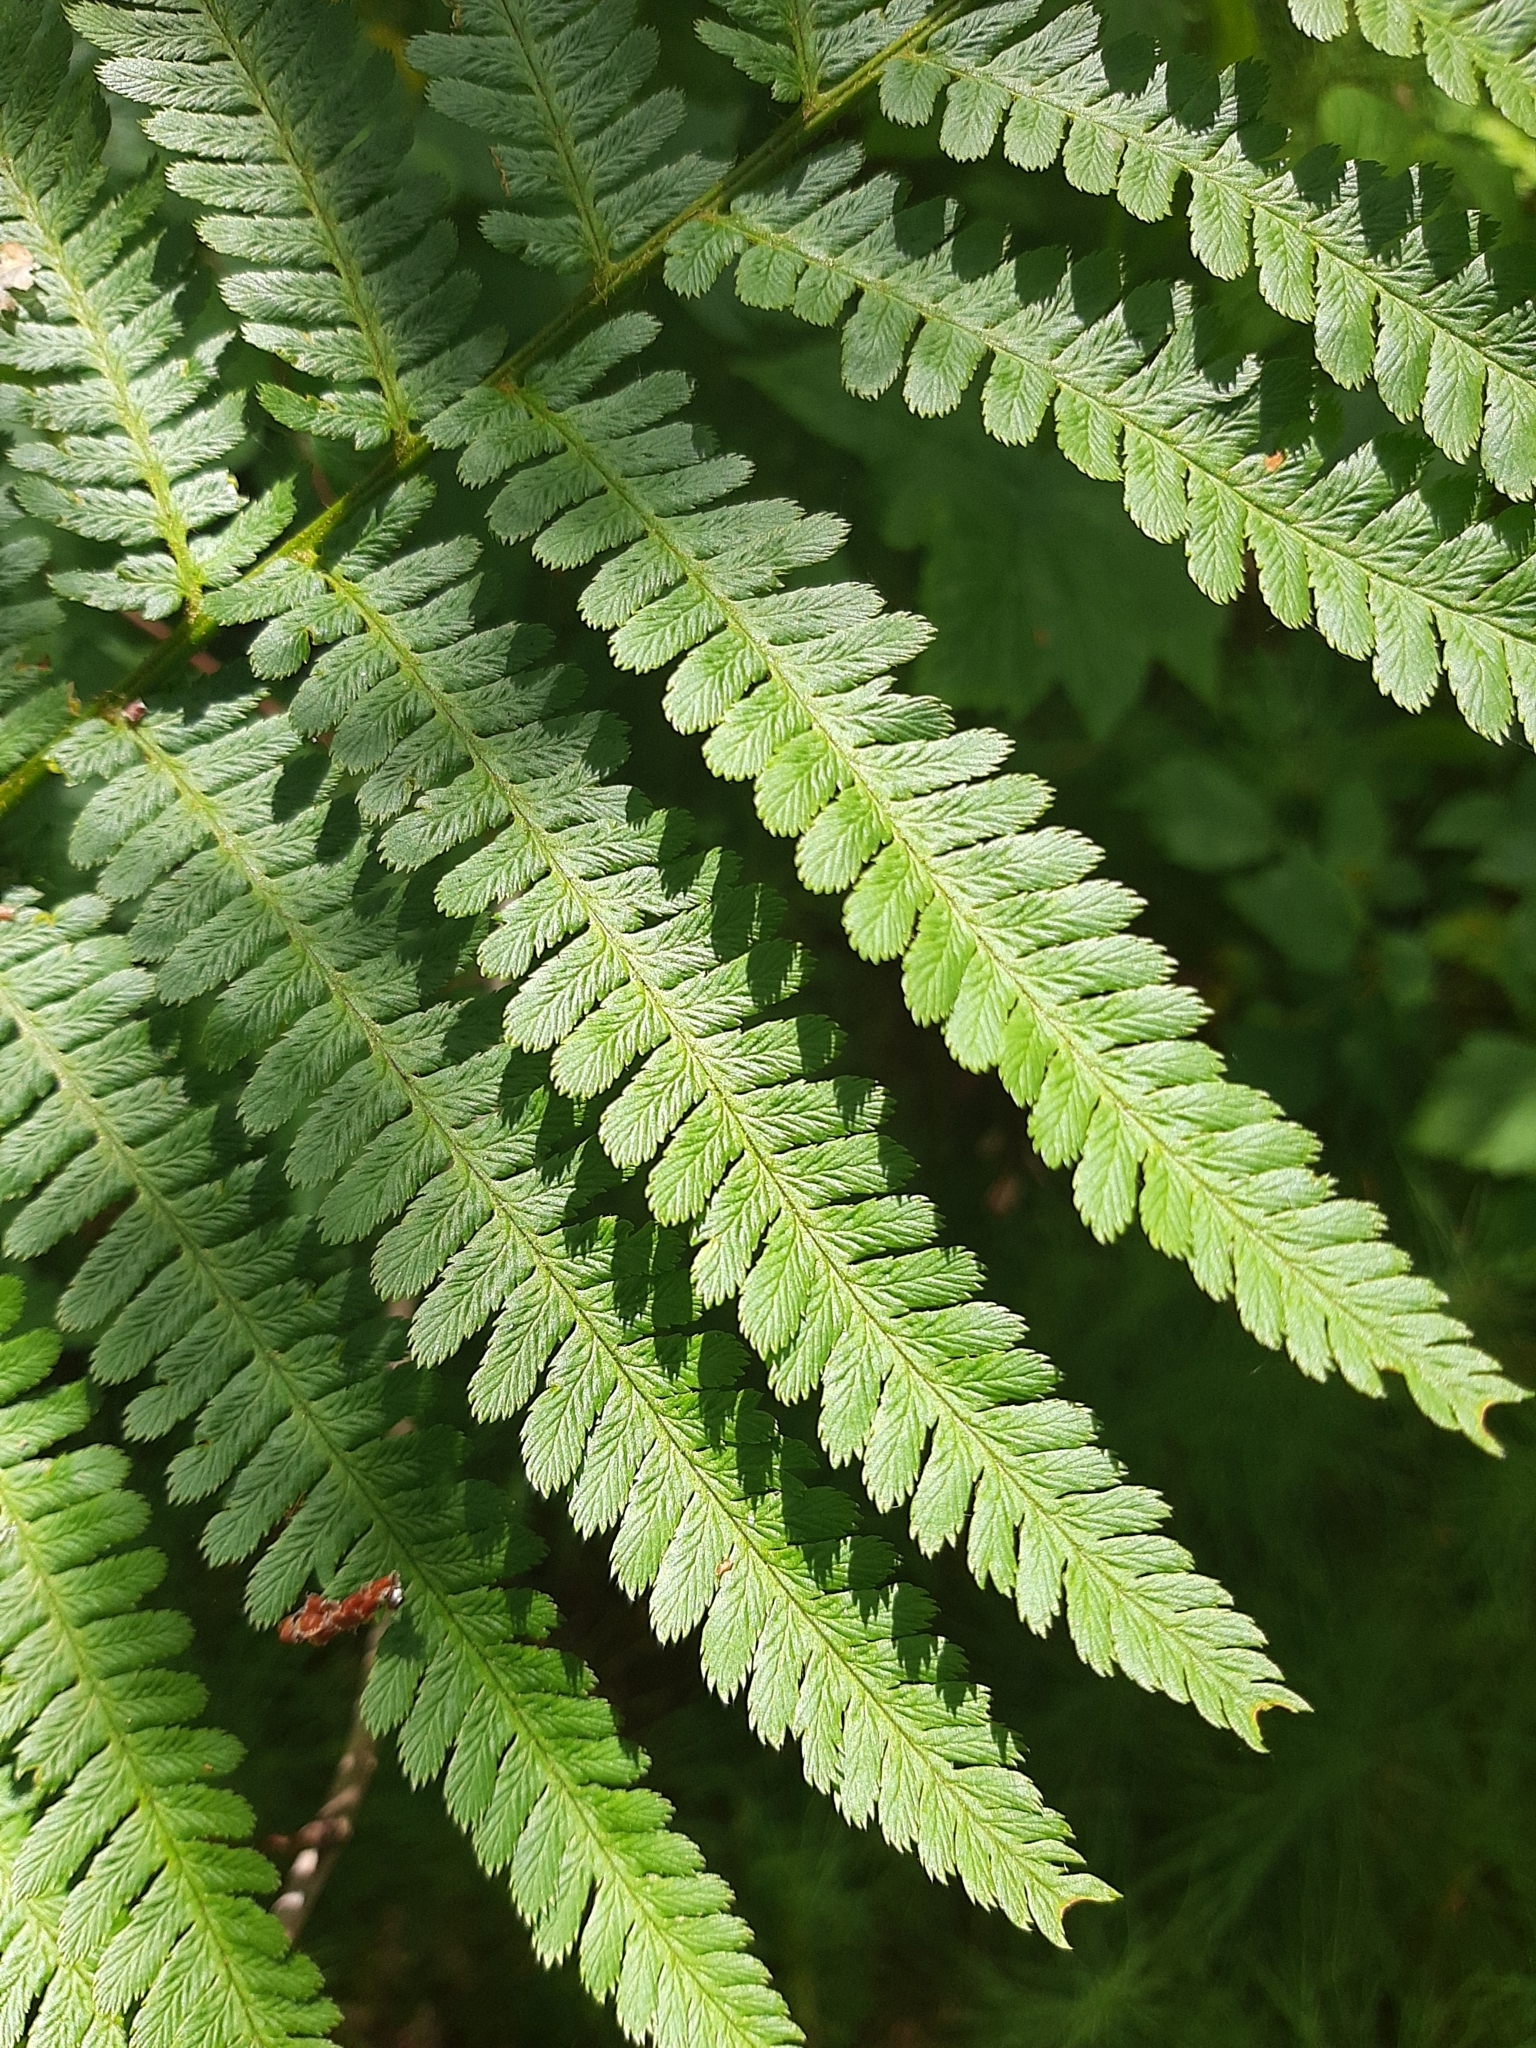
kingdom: Plantae
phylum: Tracheophyta
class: Polypodiopsida
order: Polypodiales
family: Dryopteridaceae
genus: Dryopteris
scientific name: Dryopteris filix-mas
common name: Male fern
